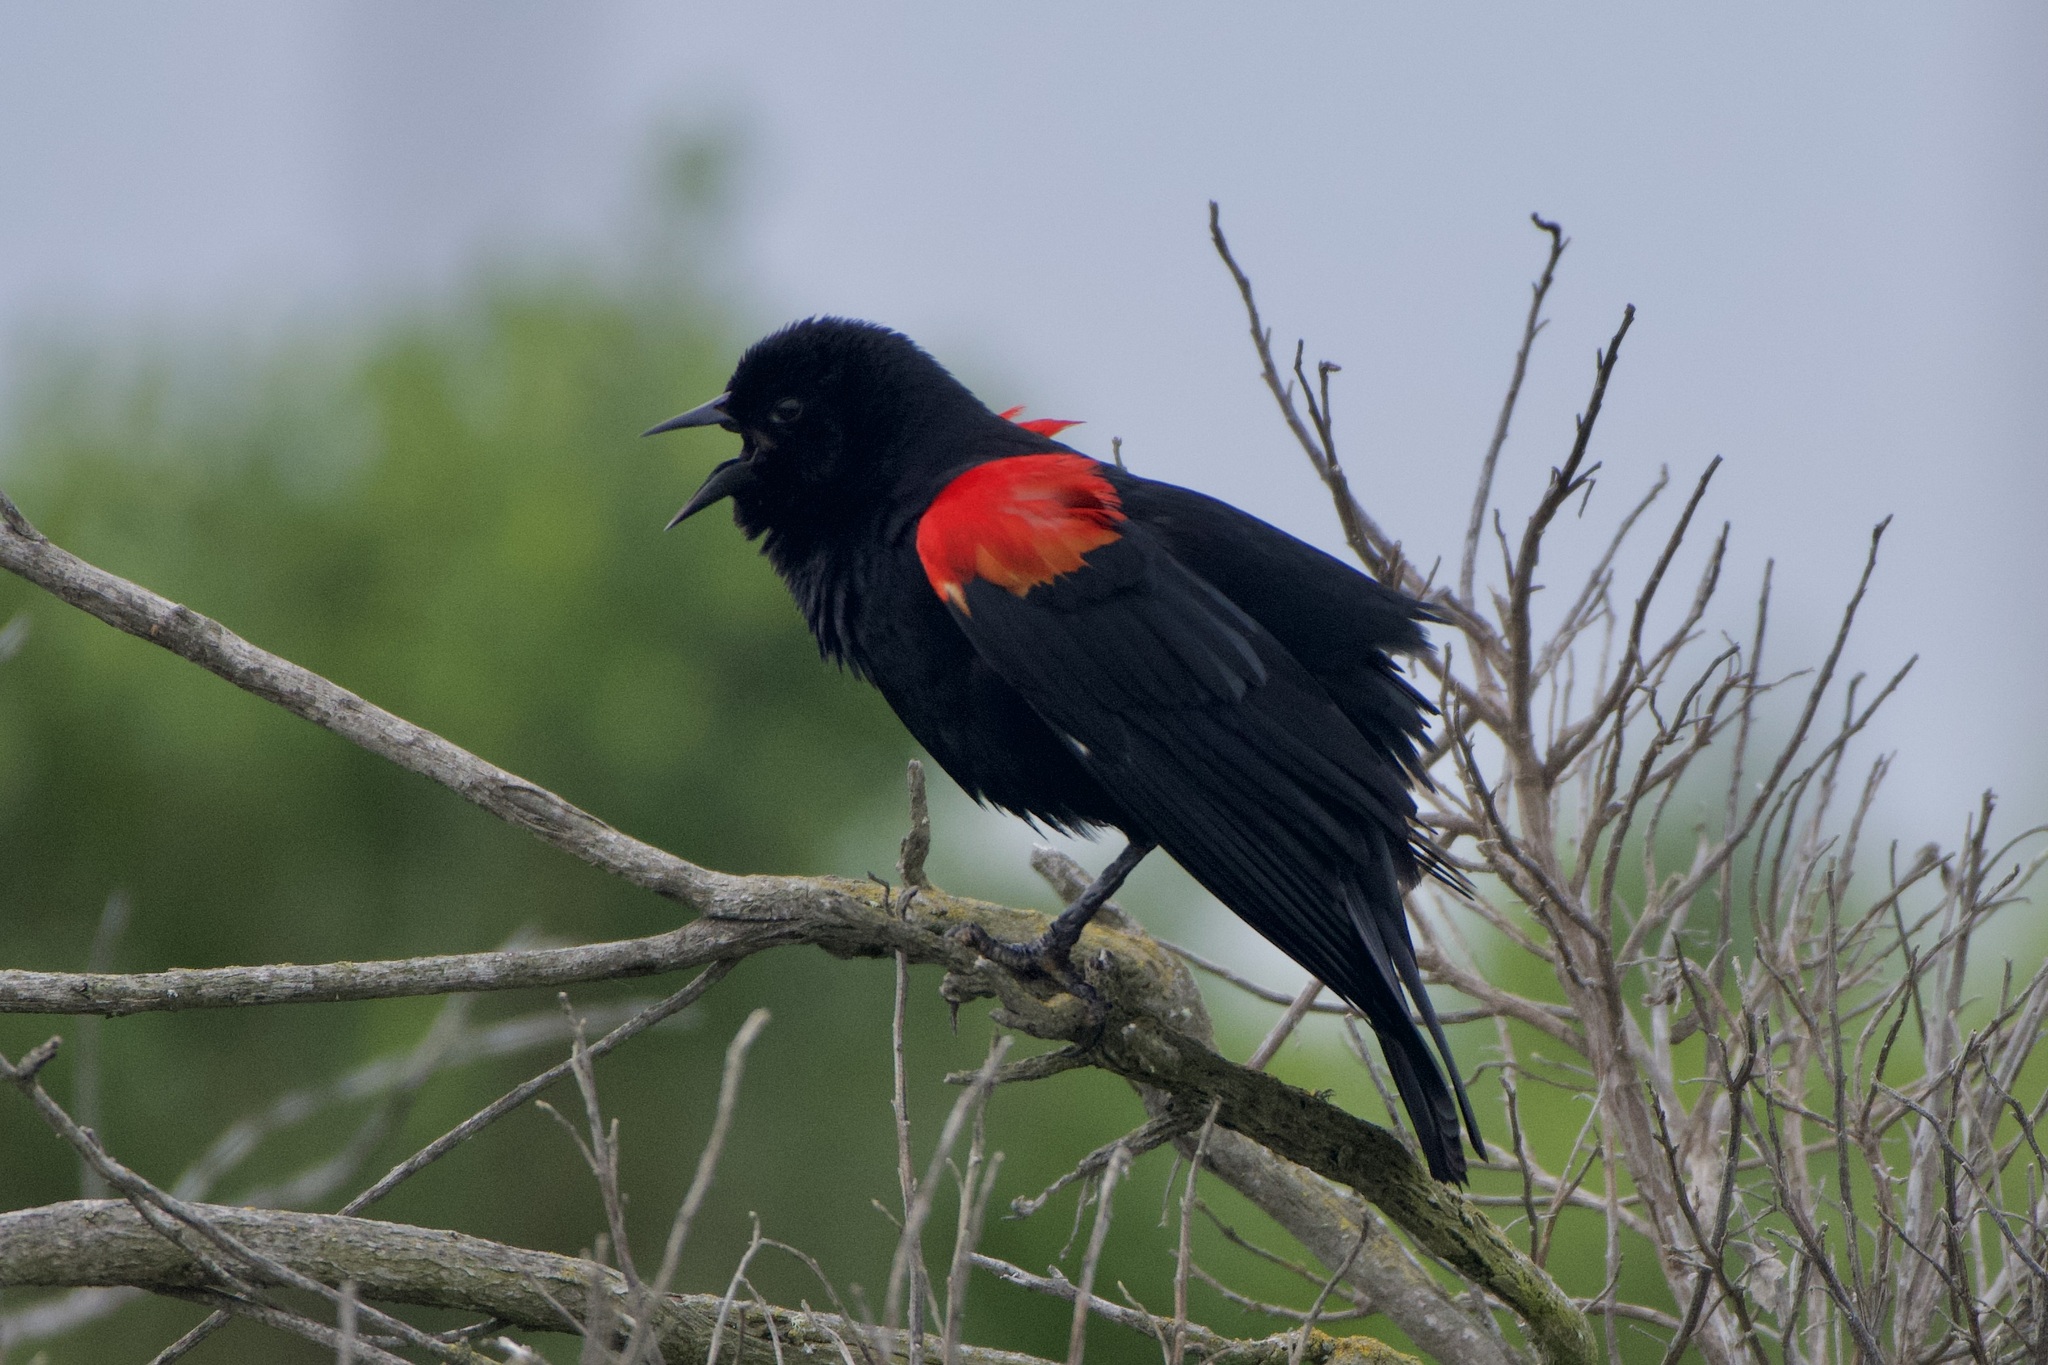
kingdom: Animalia
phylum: Chordata
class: Aves
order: Passeriformes
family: Icteridae
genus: Agelaius
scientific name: Agelaius phoeniceus
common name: Red-winged blackbird
